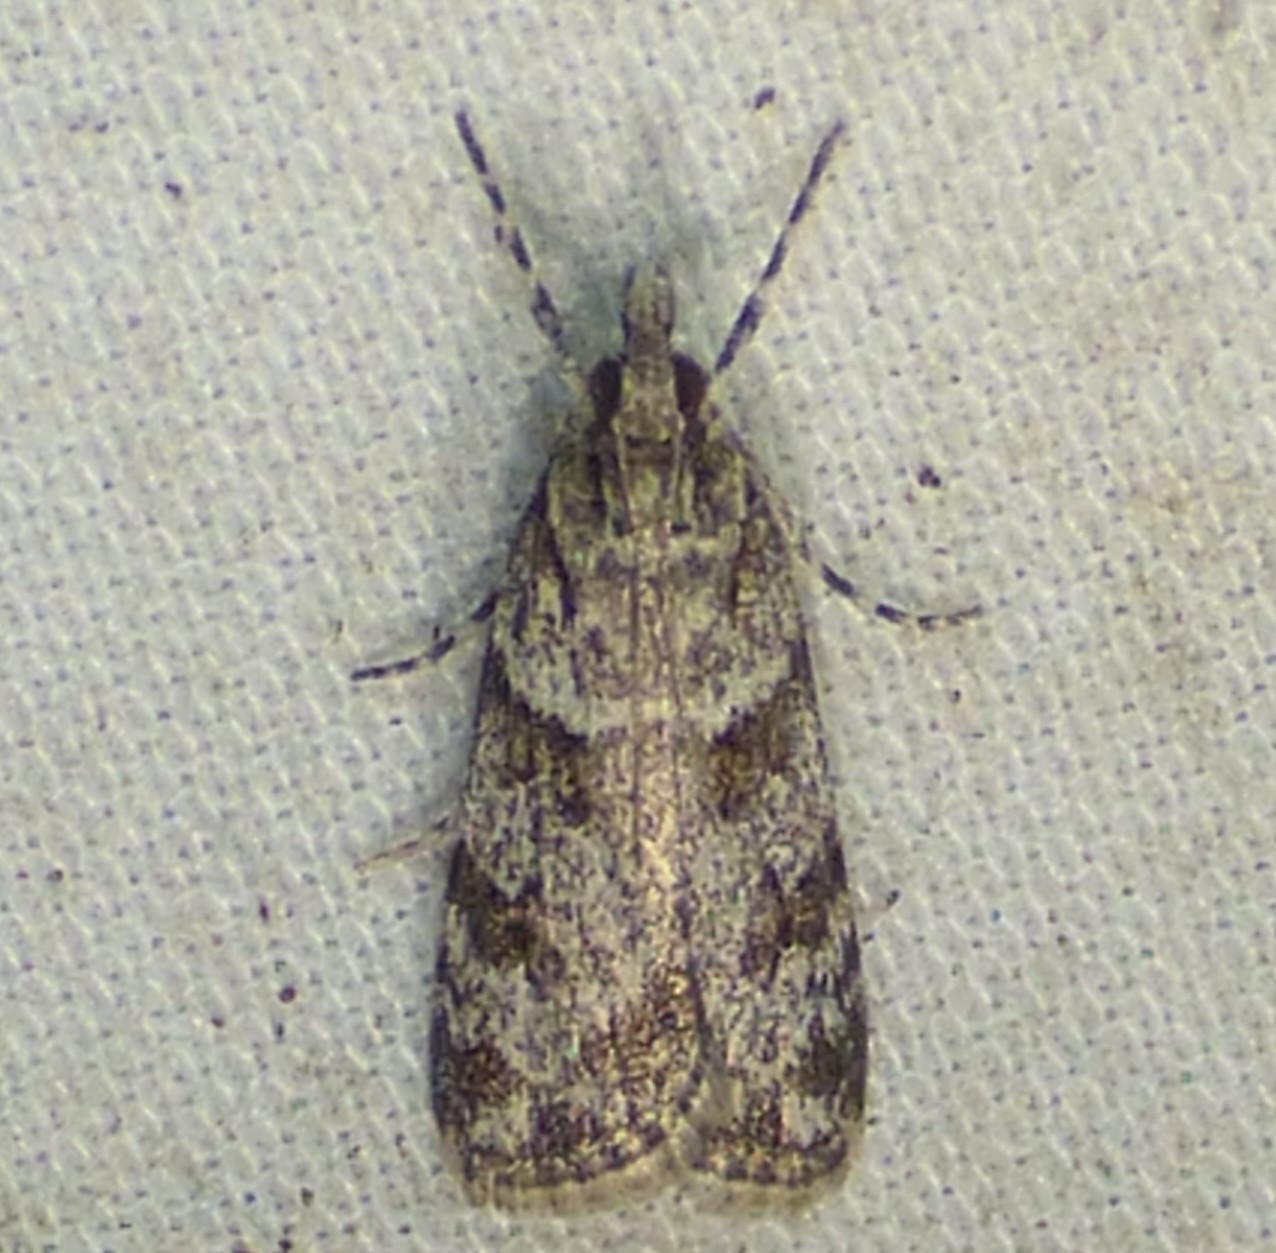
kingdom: Animalia
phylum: Arthropoda
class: Insecta
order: Lepidoptera
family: Crambidae
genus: Scoparia
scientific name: Scoparia biplagialis
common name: Double-striped scoparia moth
